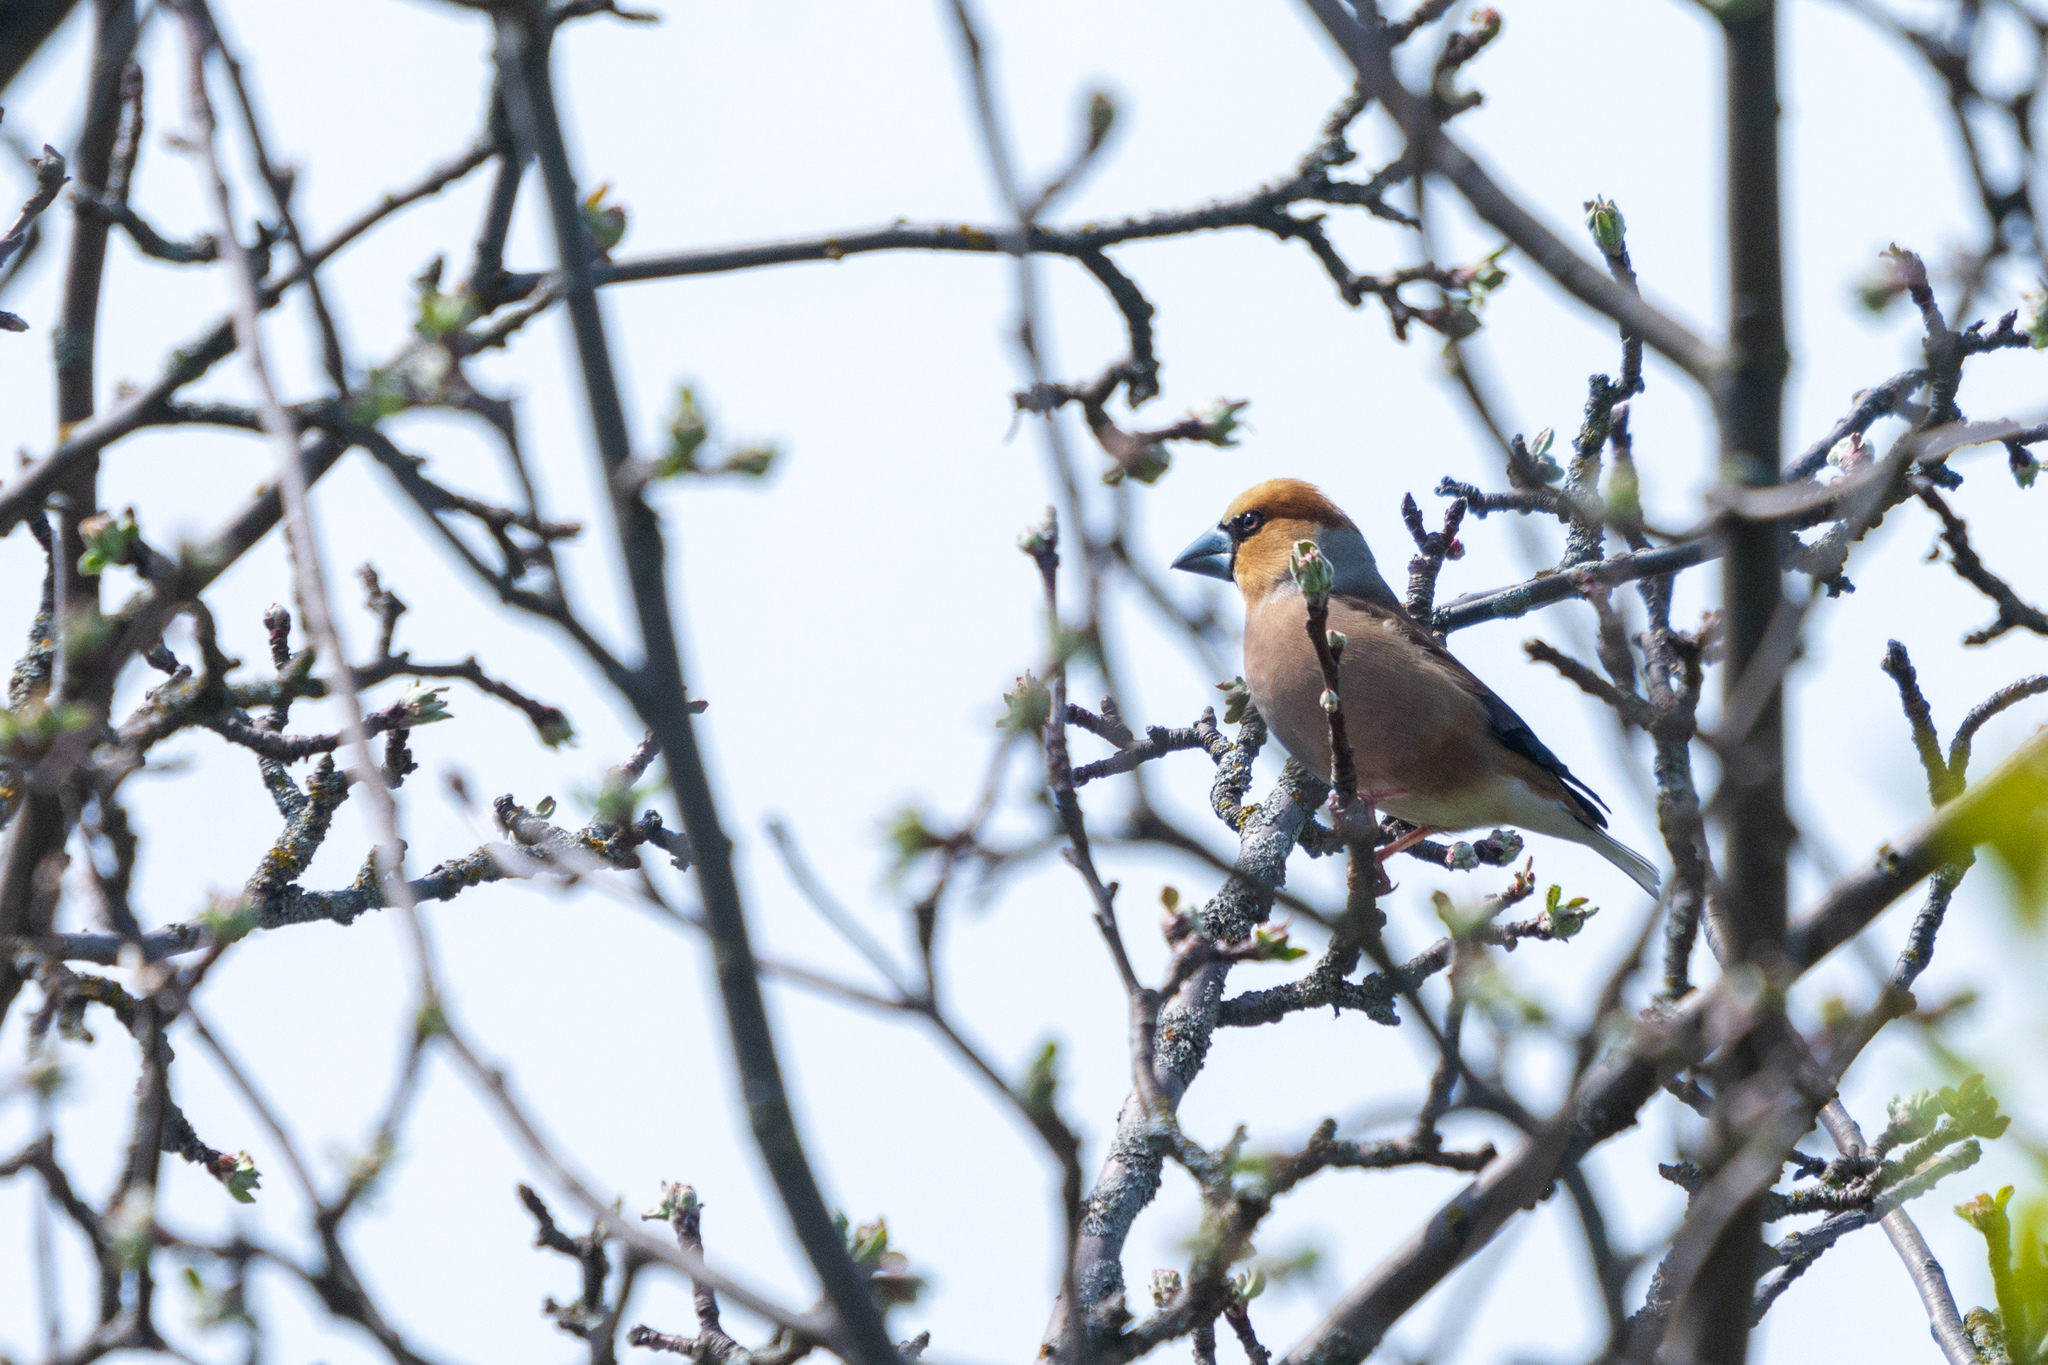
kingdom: Animalia
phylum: Chordata
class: Aves
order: Passeriformes
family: Fringillidae
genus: Coccothraustes
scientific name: Coccothraustes coccothraustes
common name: Hawfinch
